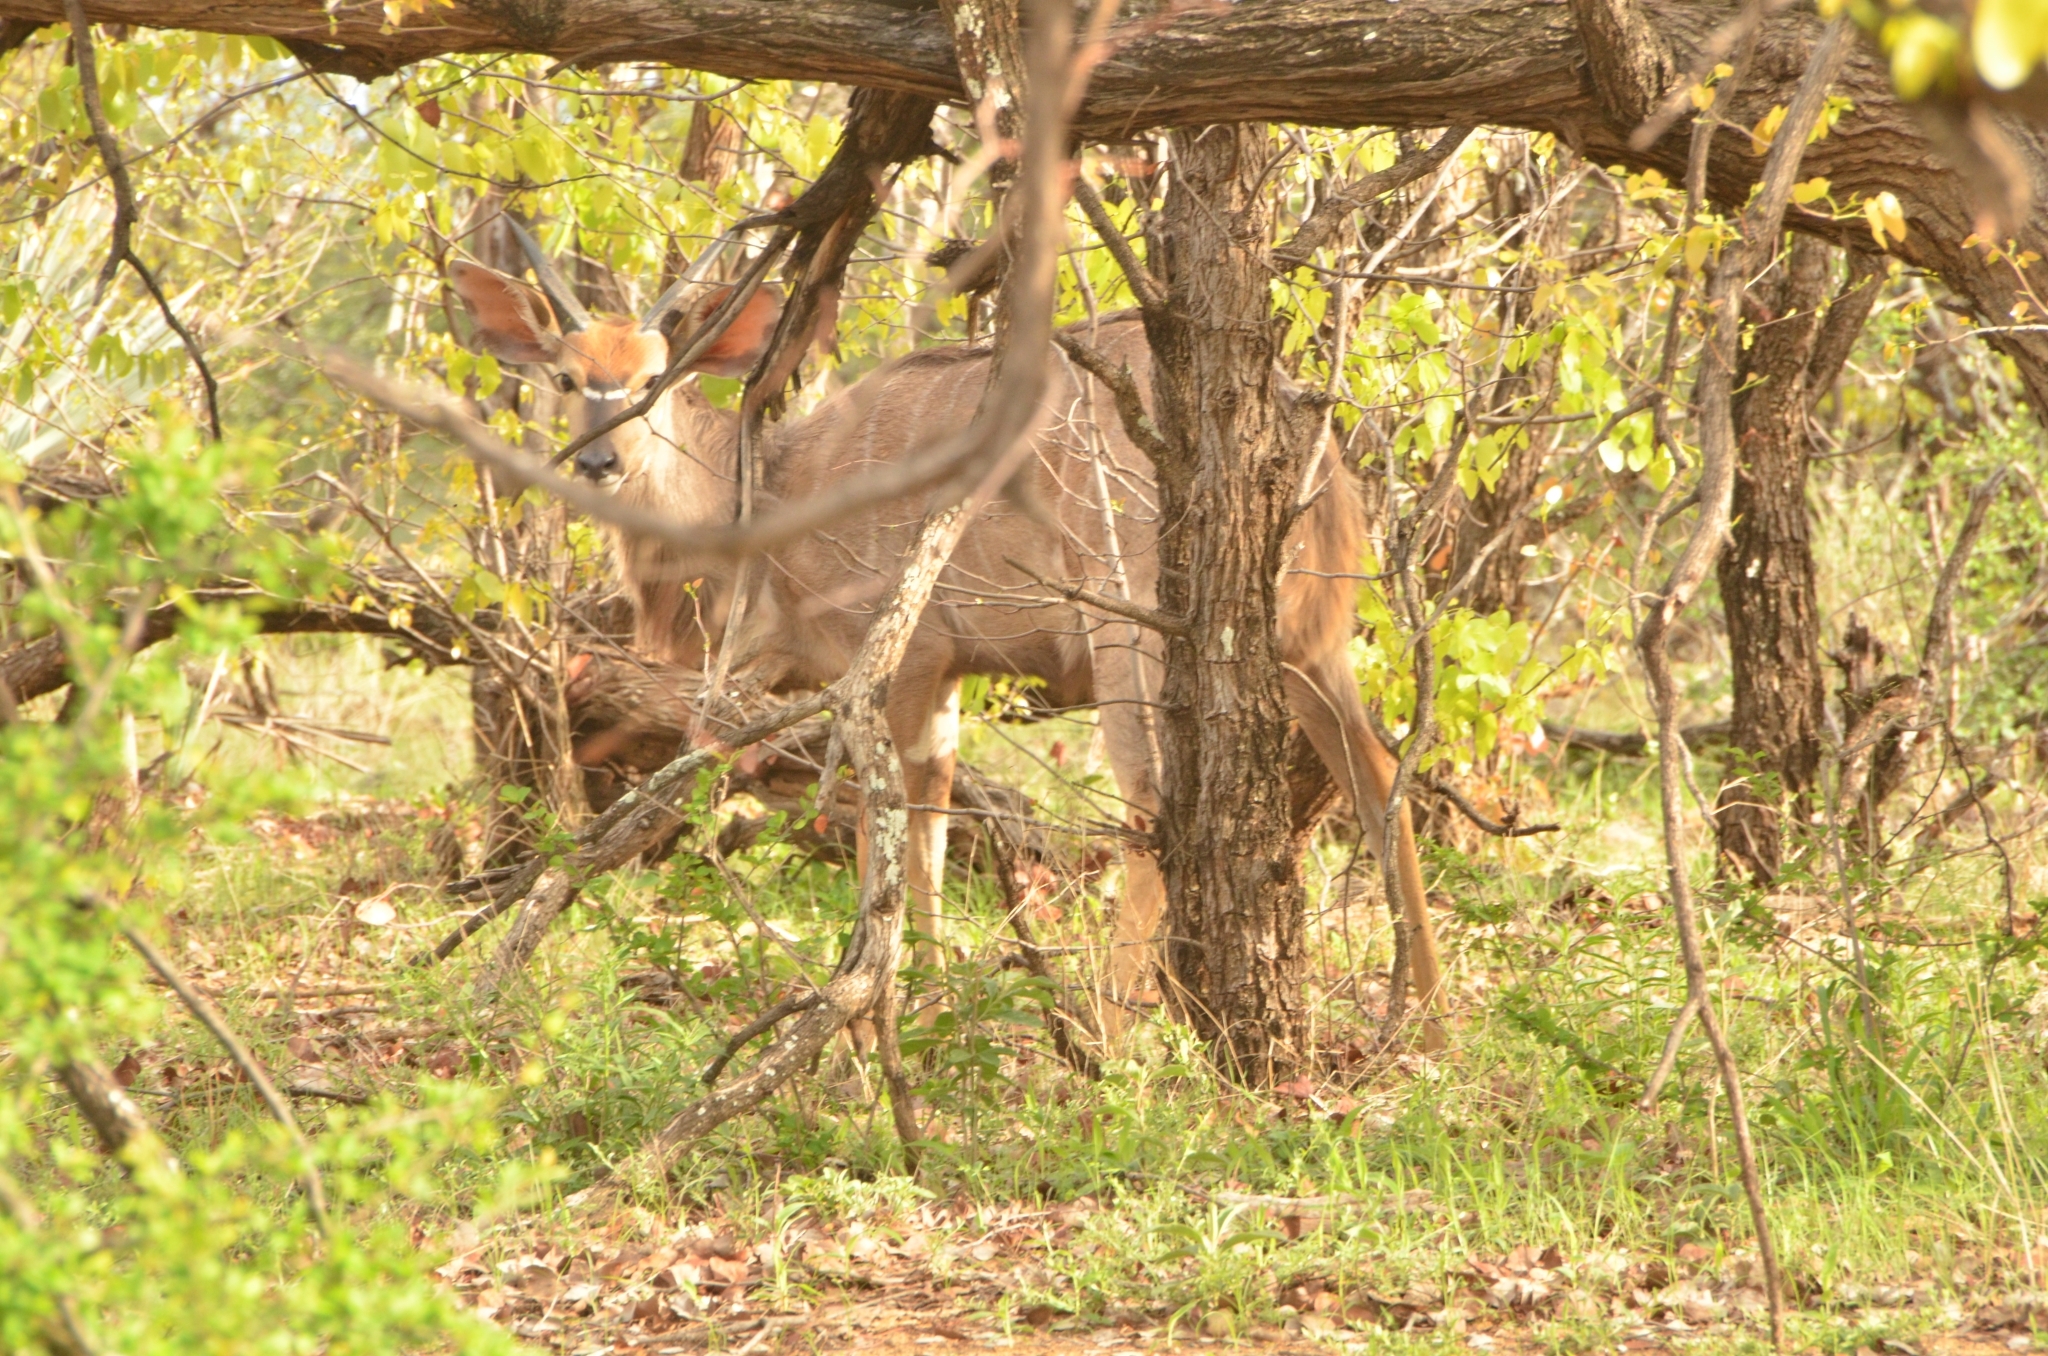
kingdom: Animalia
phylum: Chordata
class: Mammalia
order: Artiodactyla
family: Bovidae
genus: Tragelaphus
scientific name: Tragelaphus angasii
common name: Nyala
